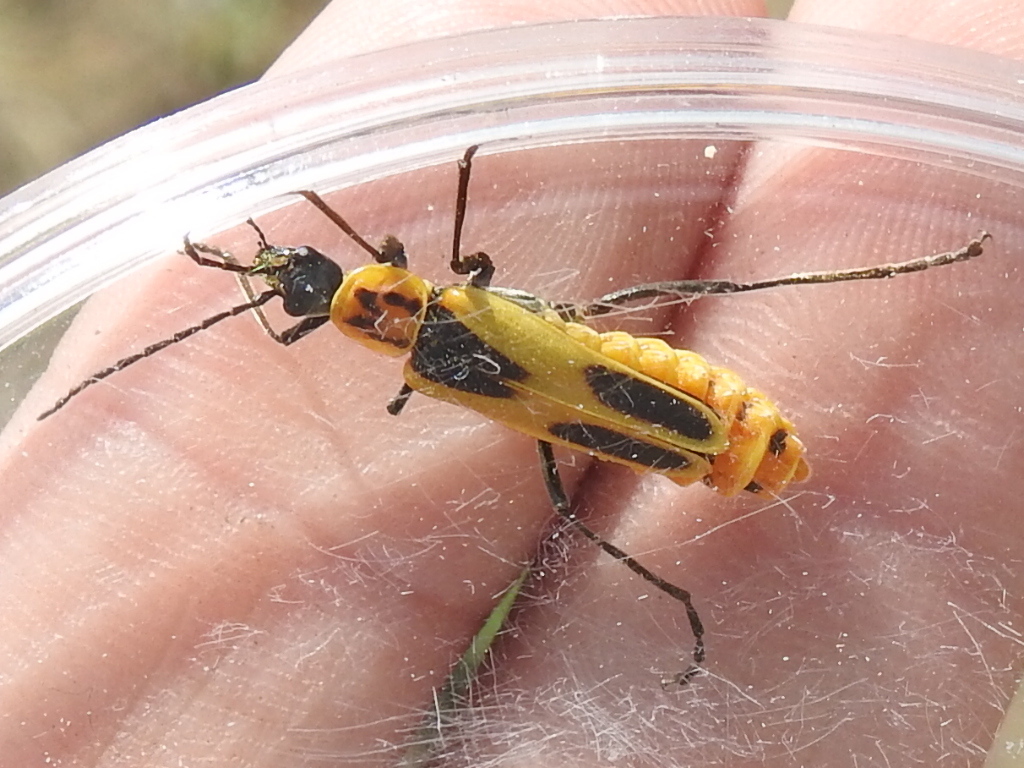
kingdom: Animalia
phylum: Arthropoda
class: Insecta
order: Coleoptera
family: Cantharidae
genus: Chauliognathus
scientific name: Chauliognathus scutellaris
